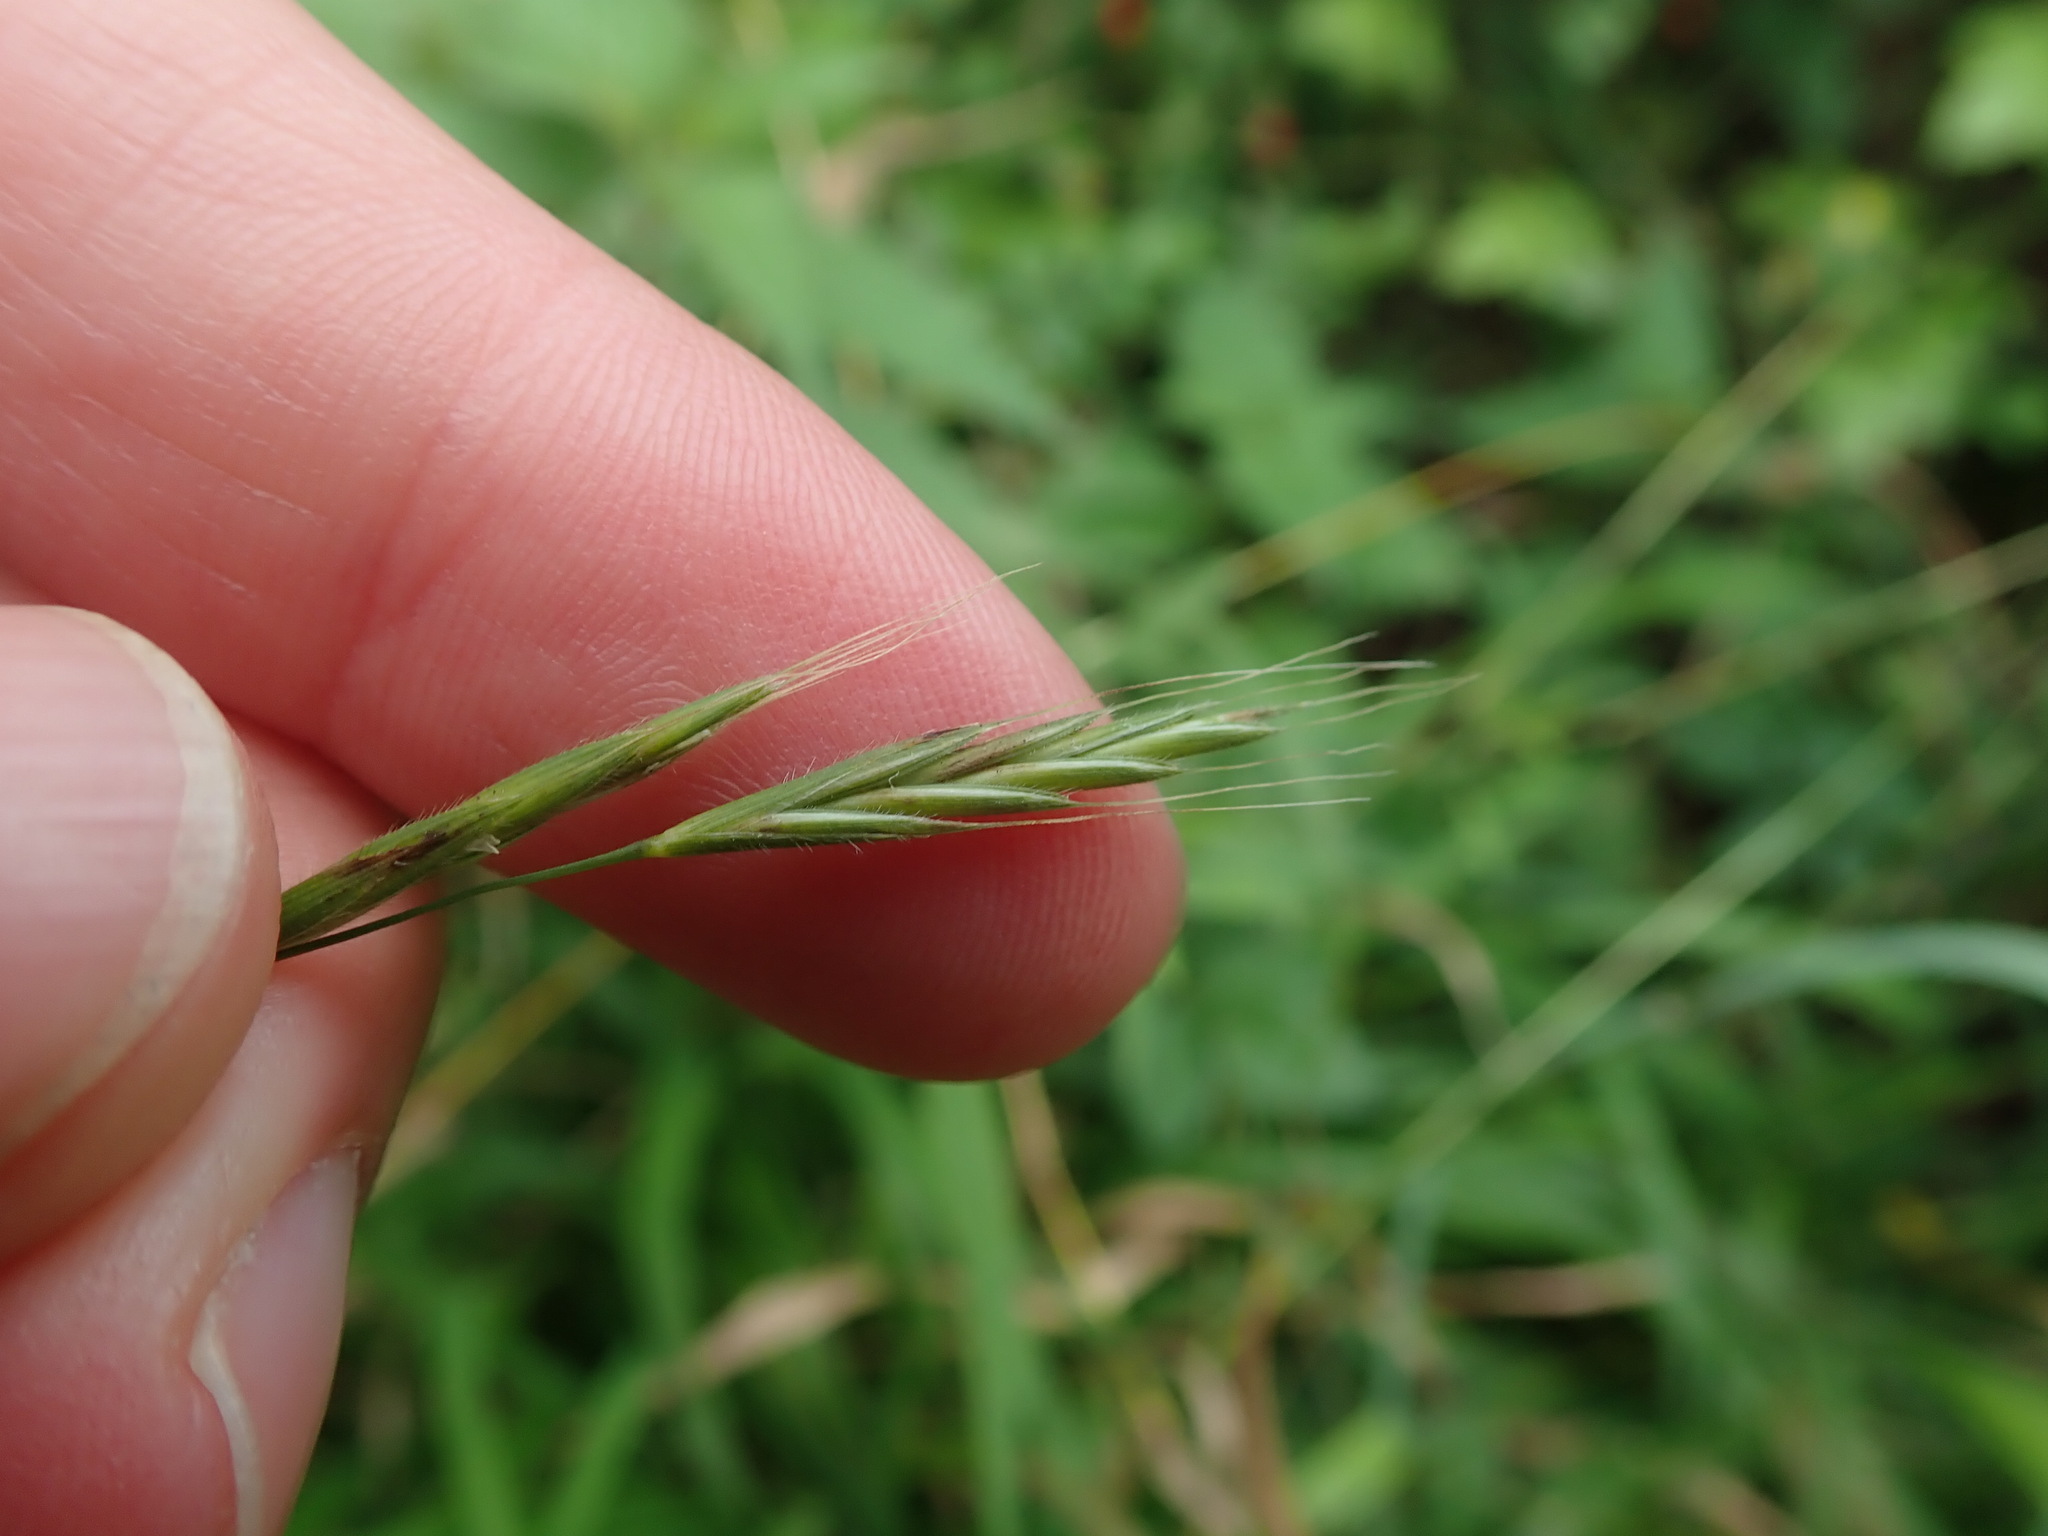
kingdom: Plantae
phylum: Tracheophyta
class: Liliopsida
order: Poales
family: Poaceae
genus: Brachypodium
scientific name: Brachypodium sylvaticum
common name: False-brome
